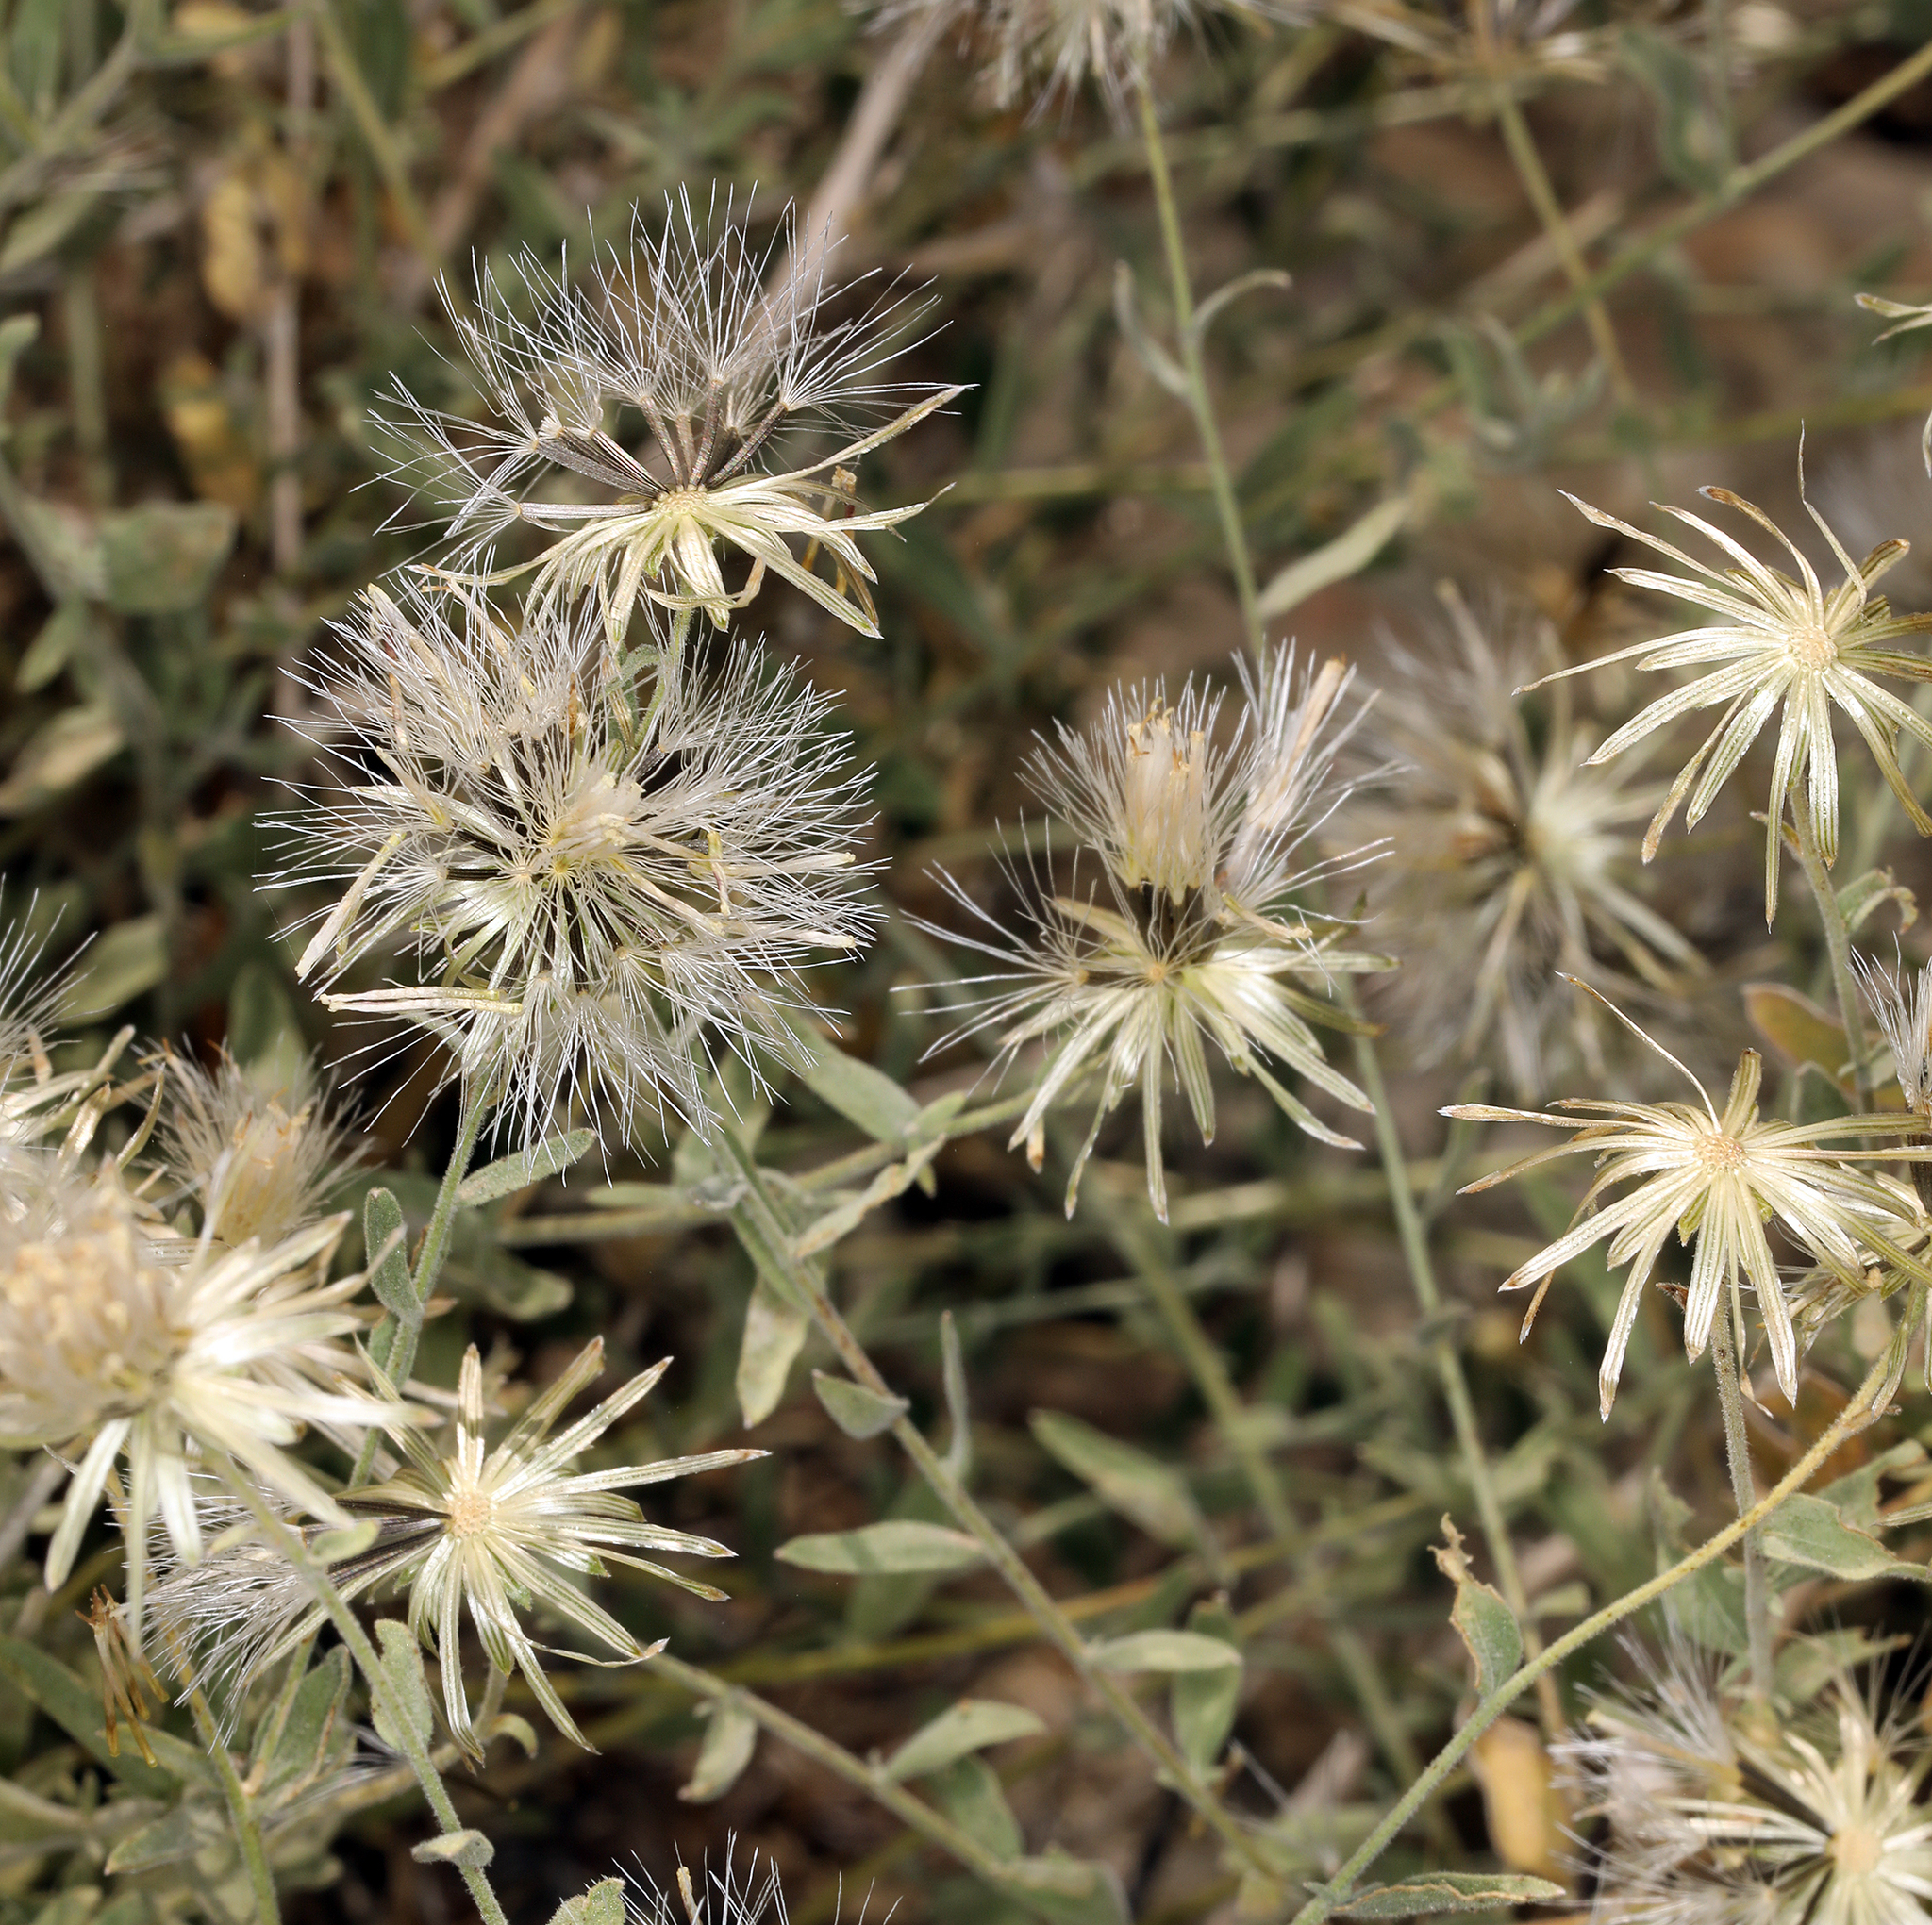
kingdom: Plantae
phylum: Tracheophyta
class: Magnoliopsida
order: Asterales
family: Asteraceae
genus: Brickellia
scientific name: Brickellia oblongifolia
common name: Mojave brickellbush
